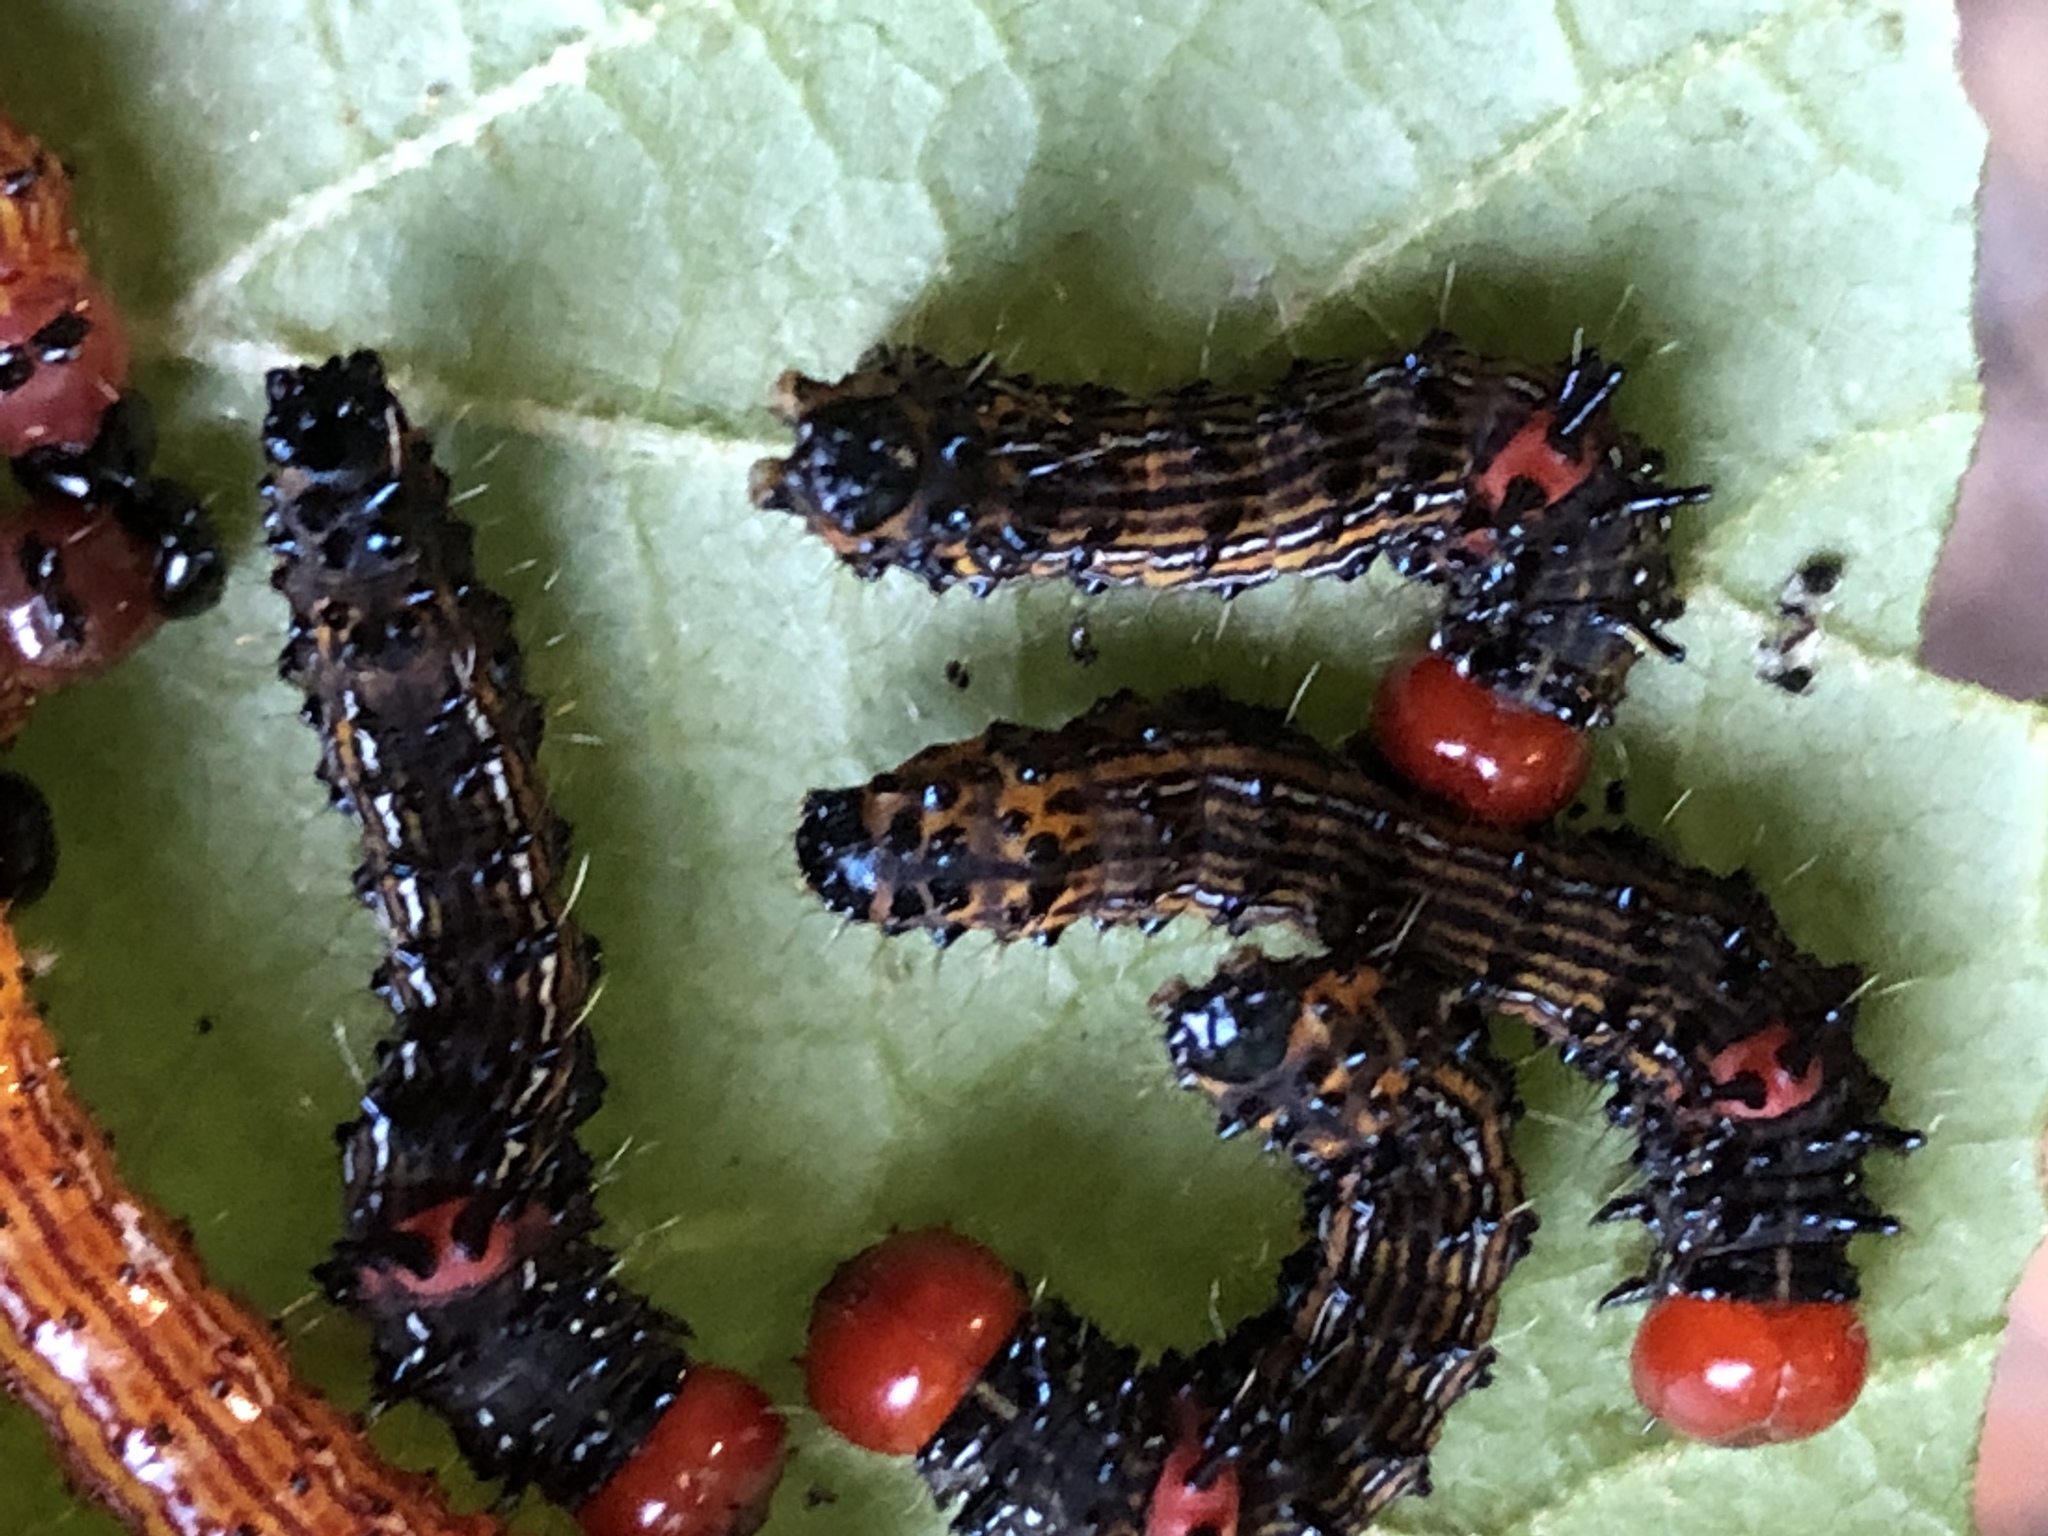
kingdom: Animalia
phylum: Arthropoda
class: Insecta
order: Lepidoptera
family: Notodontidae
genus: Schizura
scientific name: Schizura
